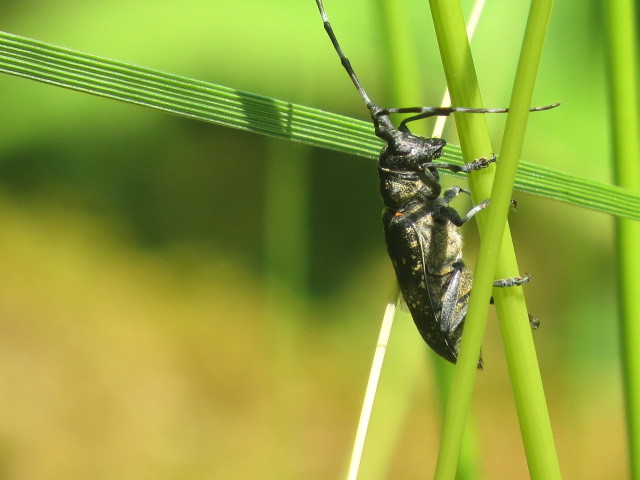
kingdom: Animalia
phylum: Arthropoda
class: Insecta
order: Coleoptera
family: Cerambycidae
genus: Monochamus
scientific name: Monochamus sutor
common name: Pine sawyer
